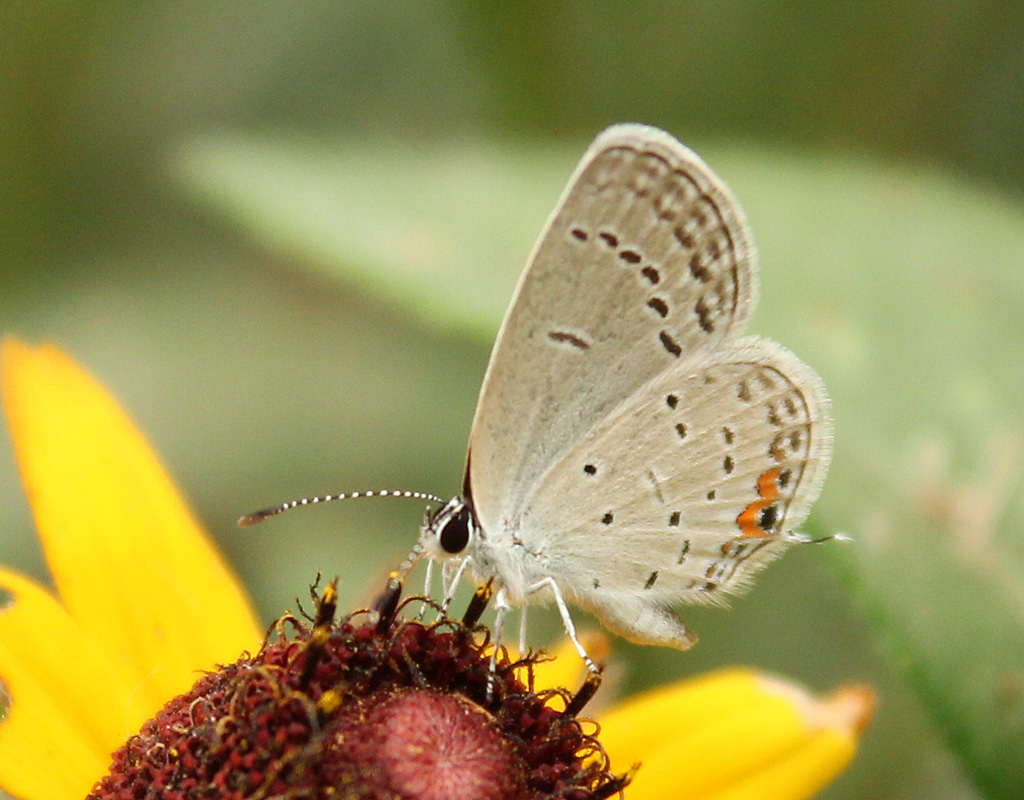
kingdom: Animalia
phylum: Arthropoda
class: Insecta
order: Lepidoptera
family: Lycaenidae
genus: Elkalyce
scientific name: Elkalyce comyntas
